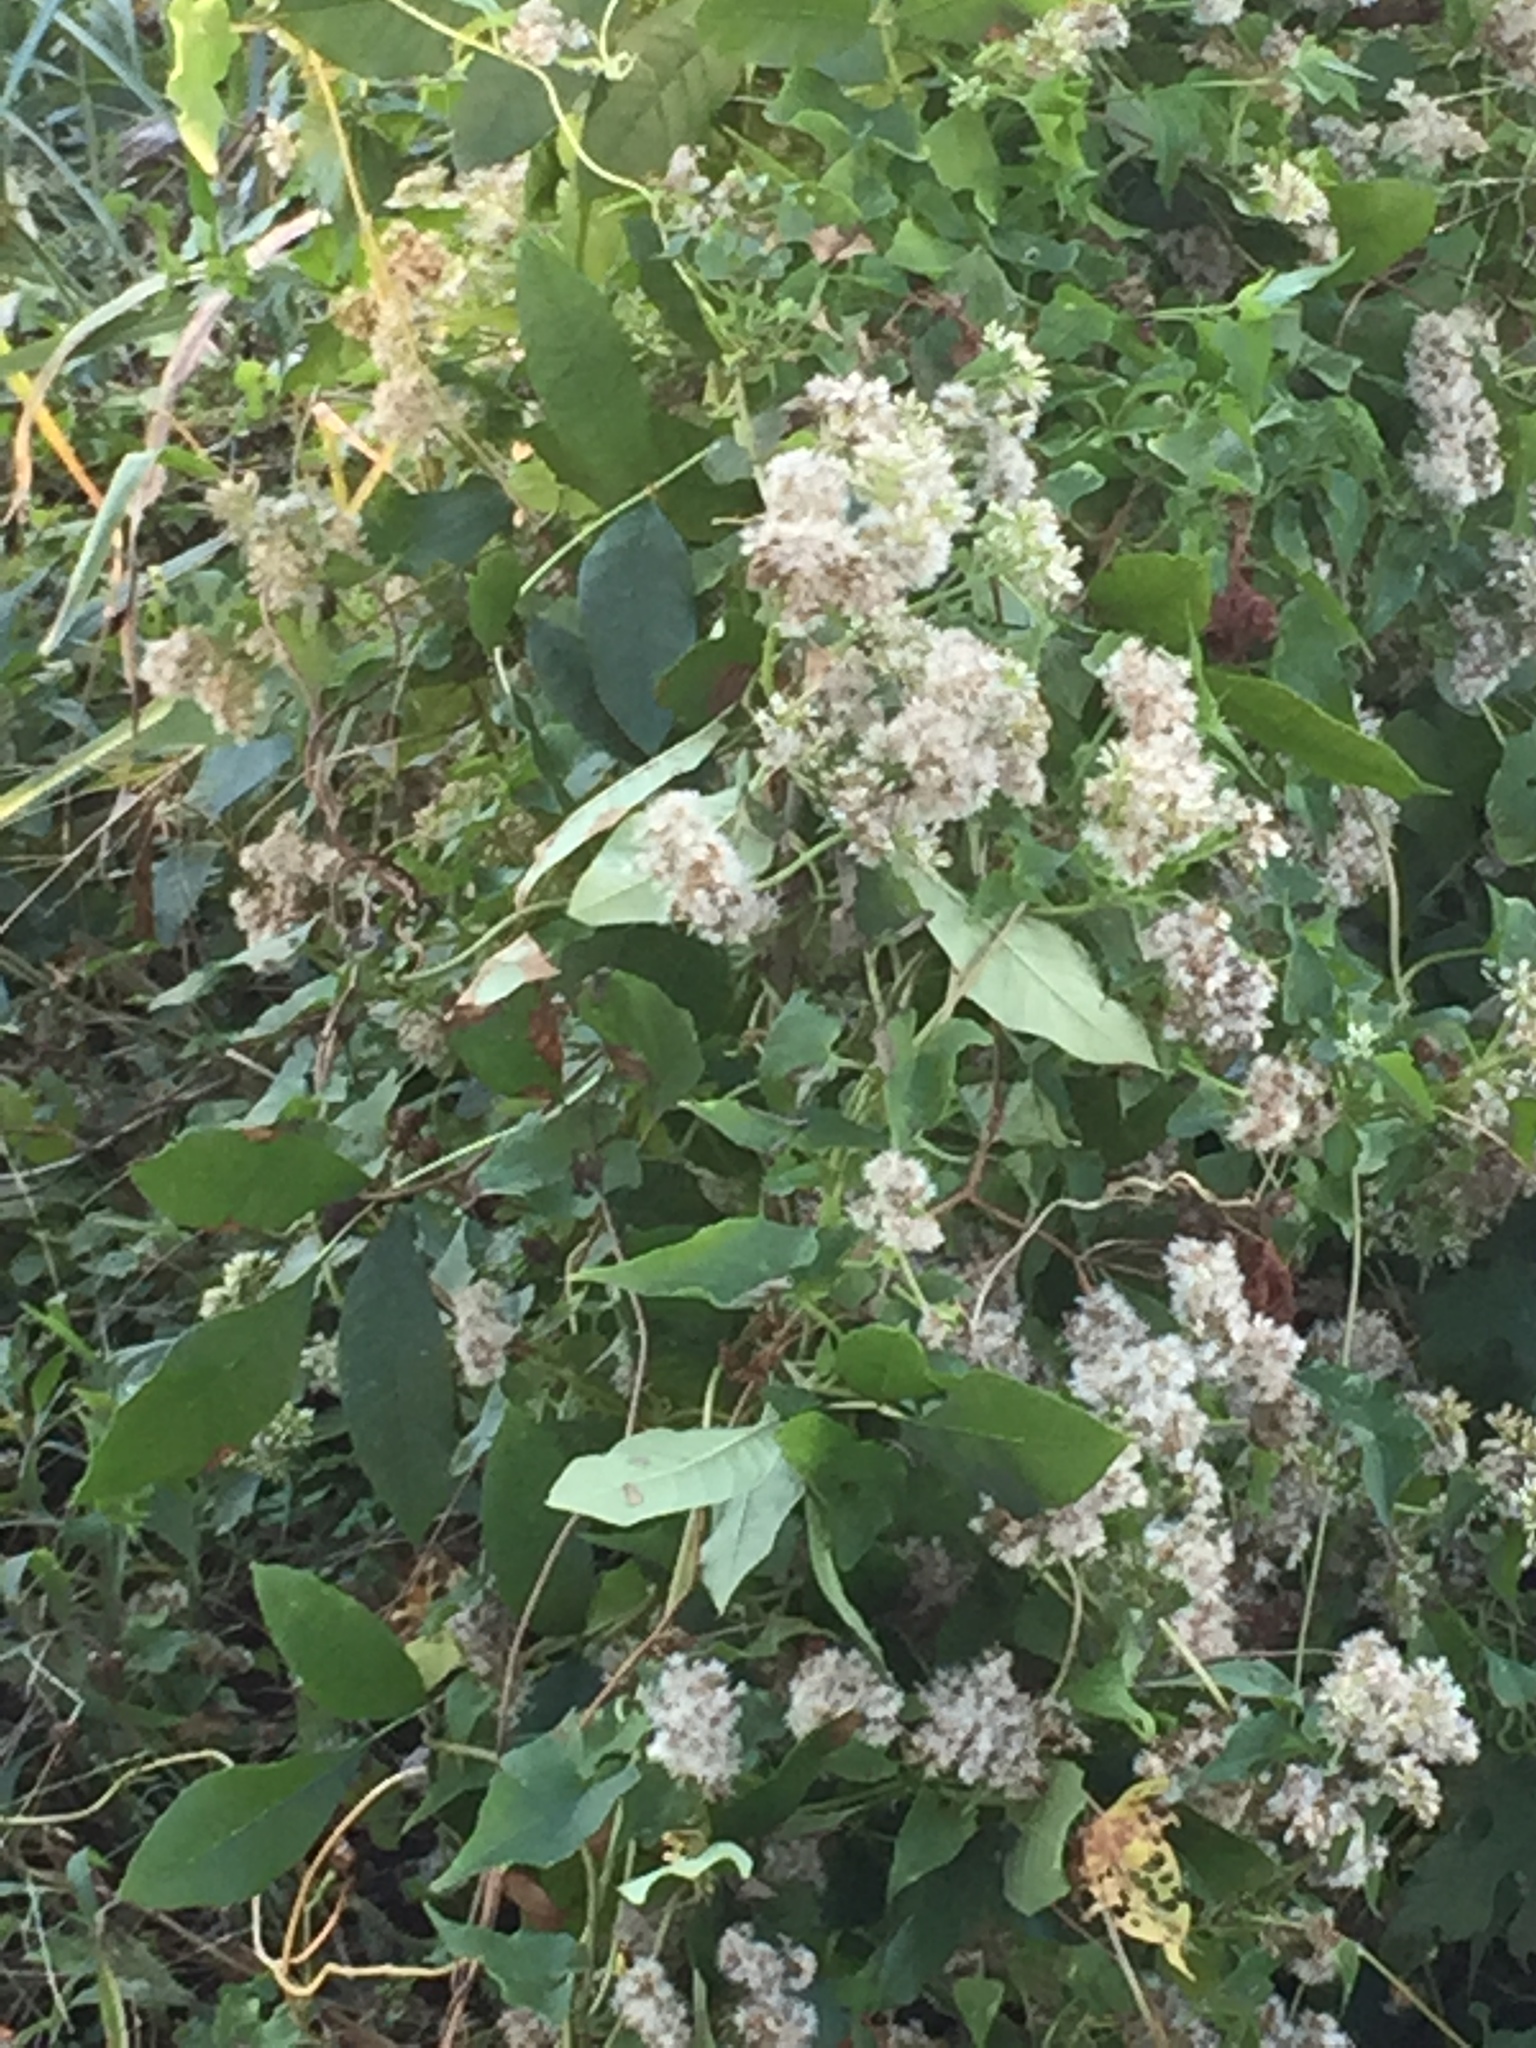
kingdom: Plantae
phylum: Tracheophyta
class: Magnoliopsida
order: Asterales
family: Asteraceae
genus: Mikania
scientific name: Mikania scandens
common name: Climbing hempvine
